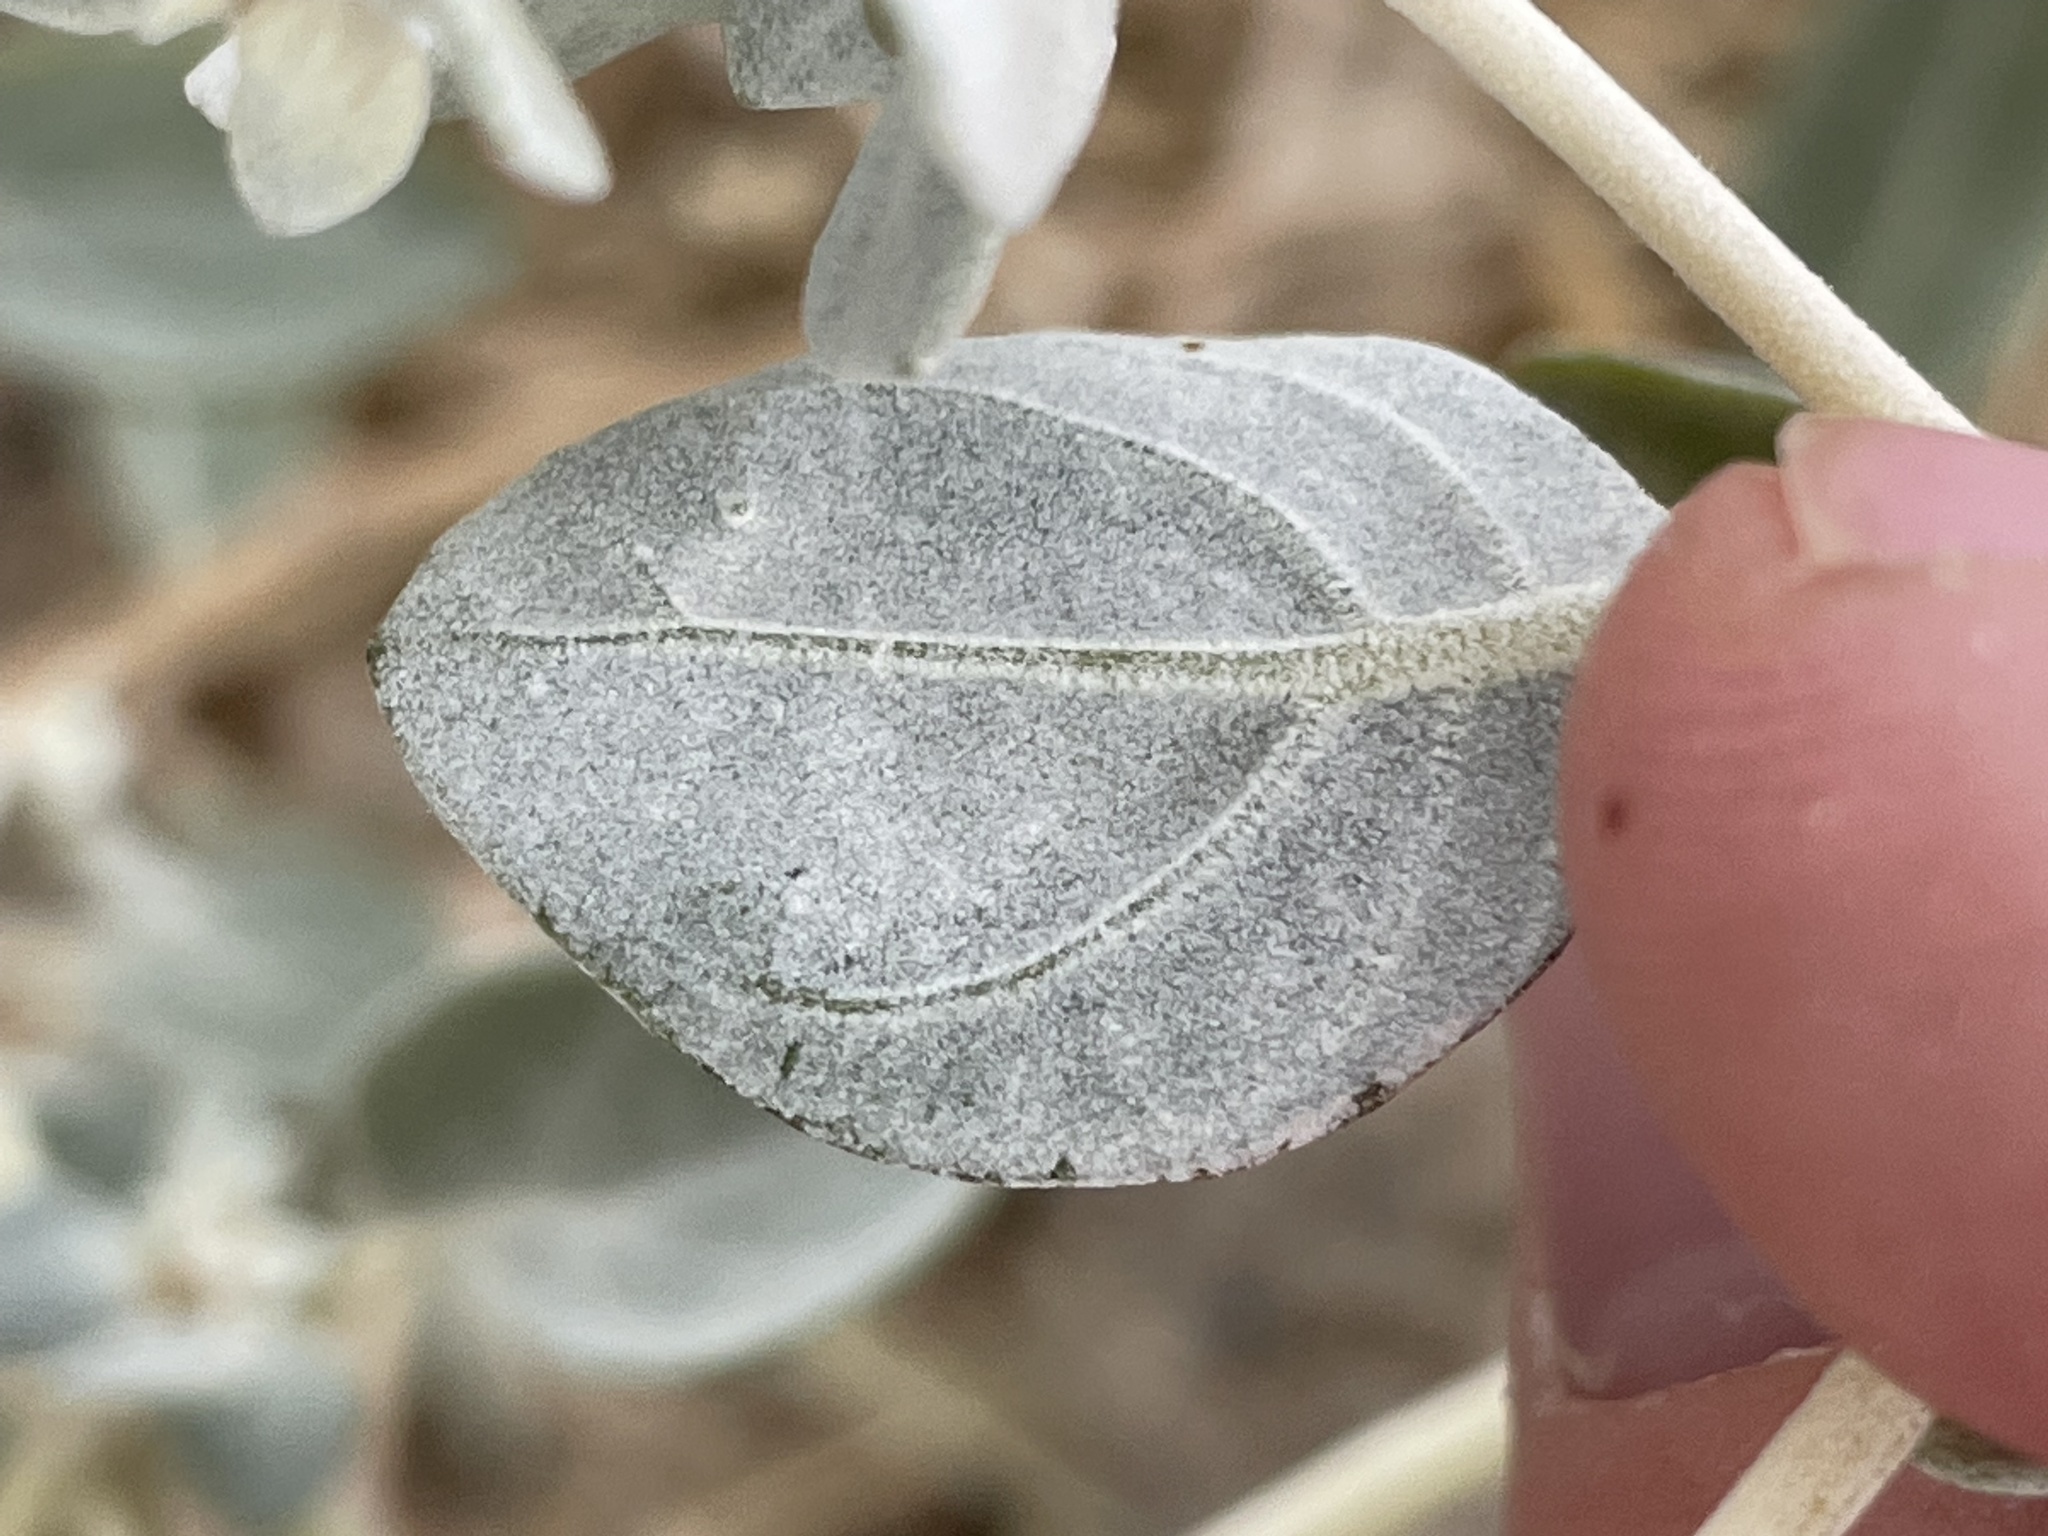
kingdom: Plantae
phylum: Tracheophyta
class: Magnoliopsida
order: Caryophyllales
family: Amaranthaceae
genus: Tidestromia
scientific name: Tidestromia suffruticosa
